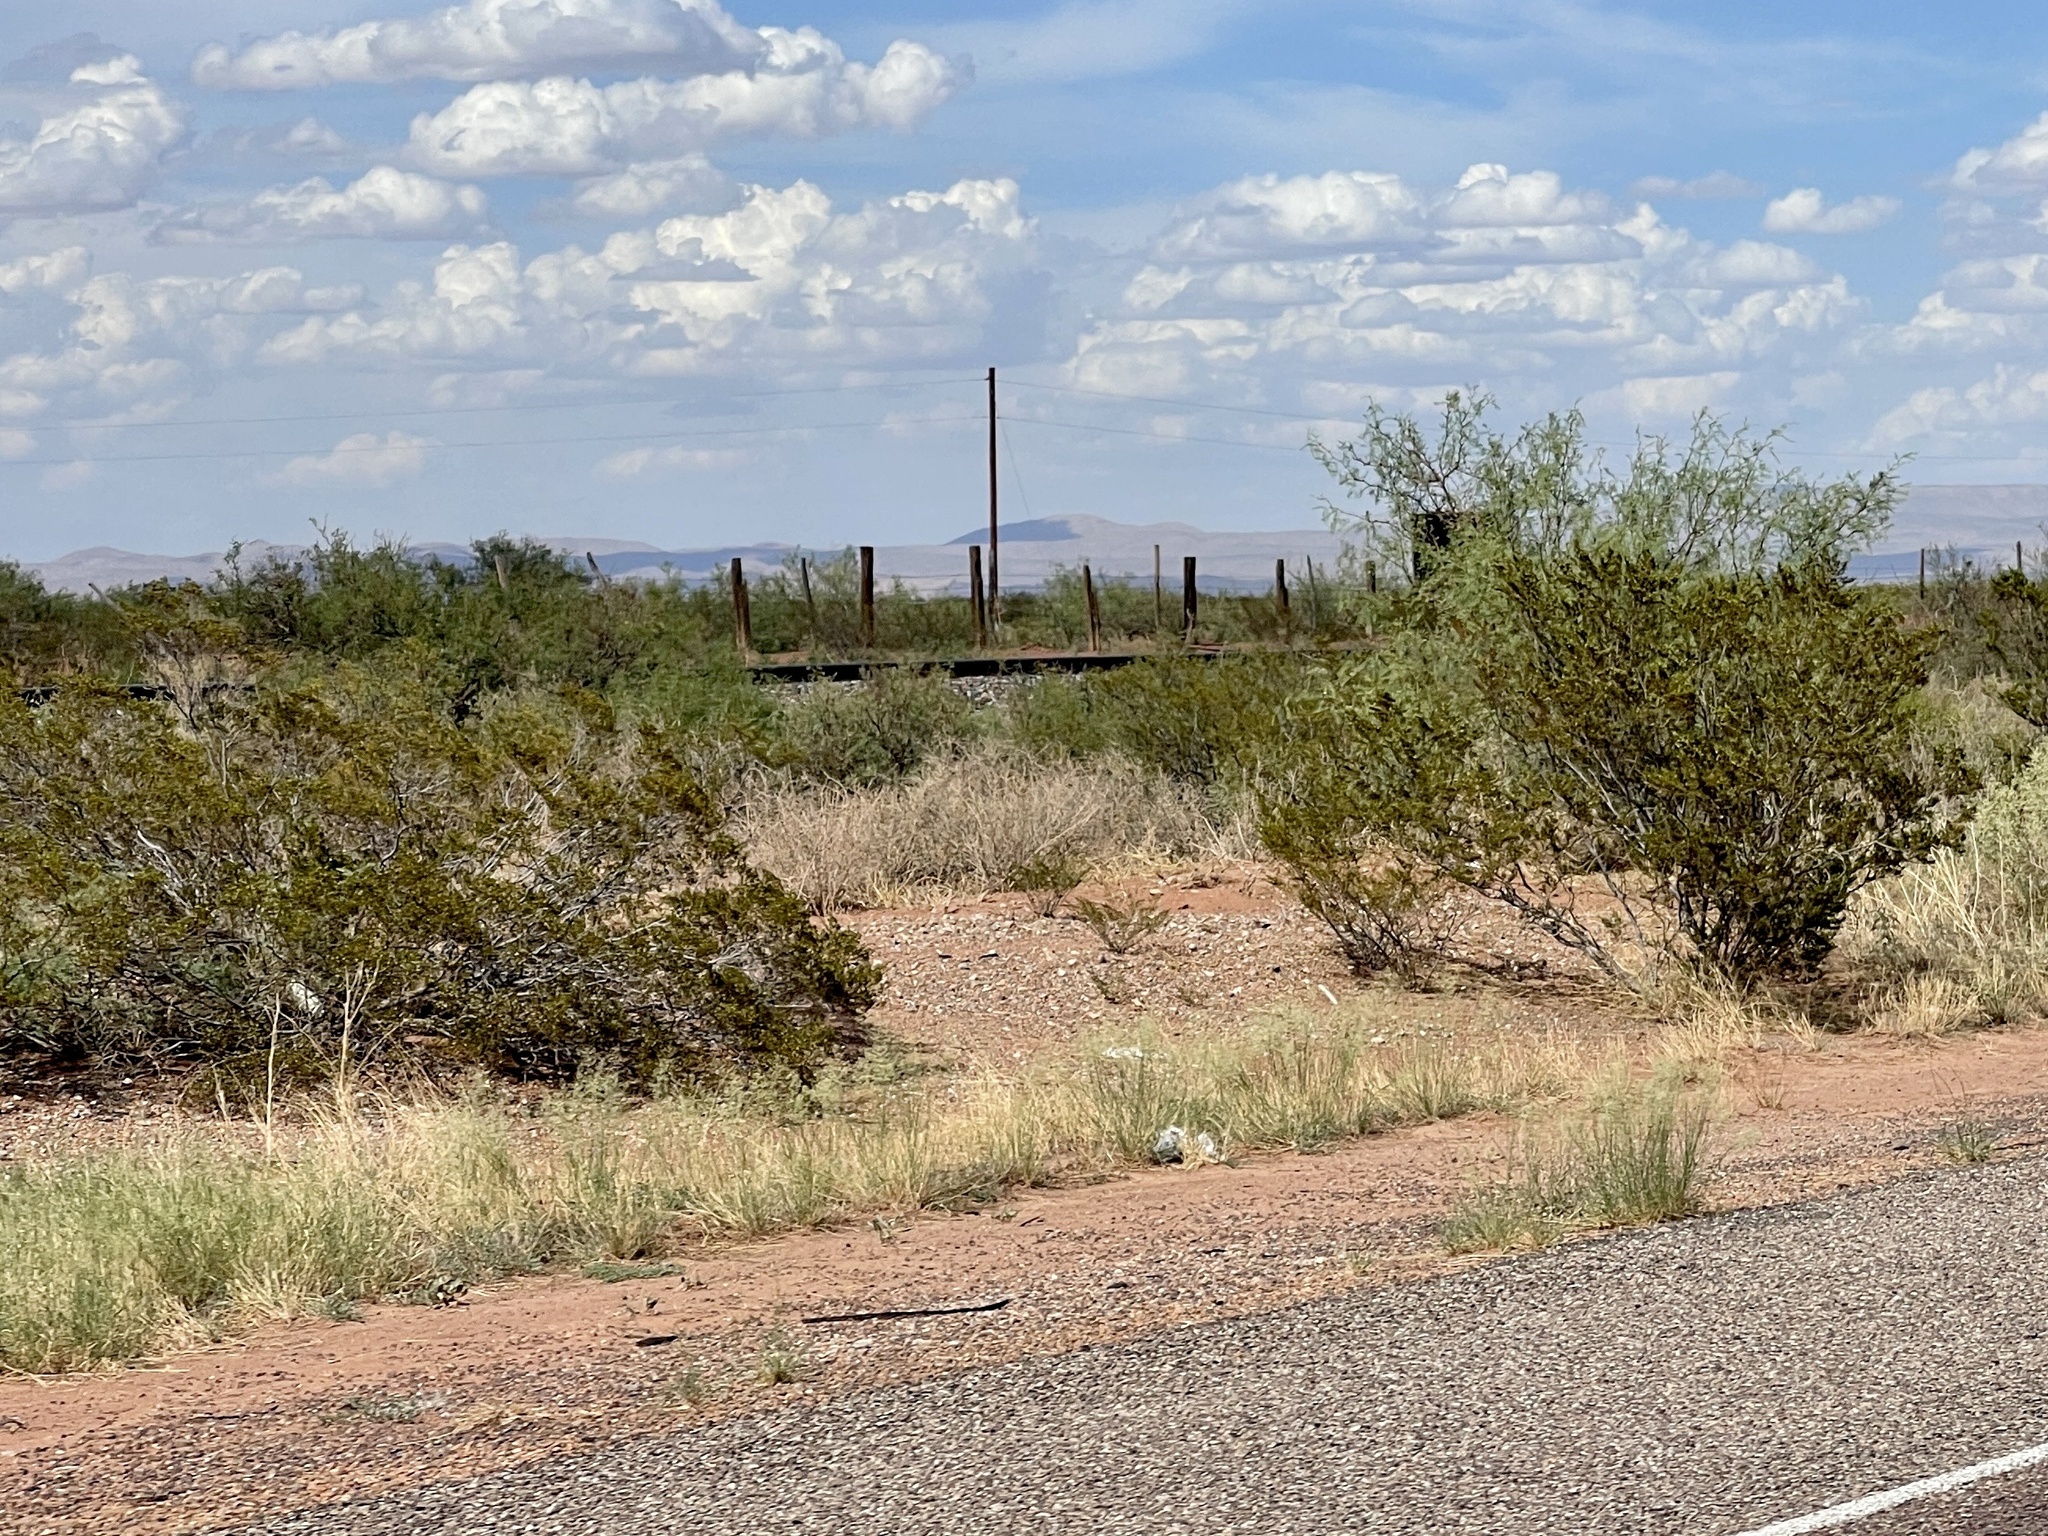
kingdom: Plantae
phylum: Tracheophyta
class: Magnoliopsida
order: Zygophyllales
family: Zygophyllaceae
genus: Larrea
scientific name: Larrea tridentata
